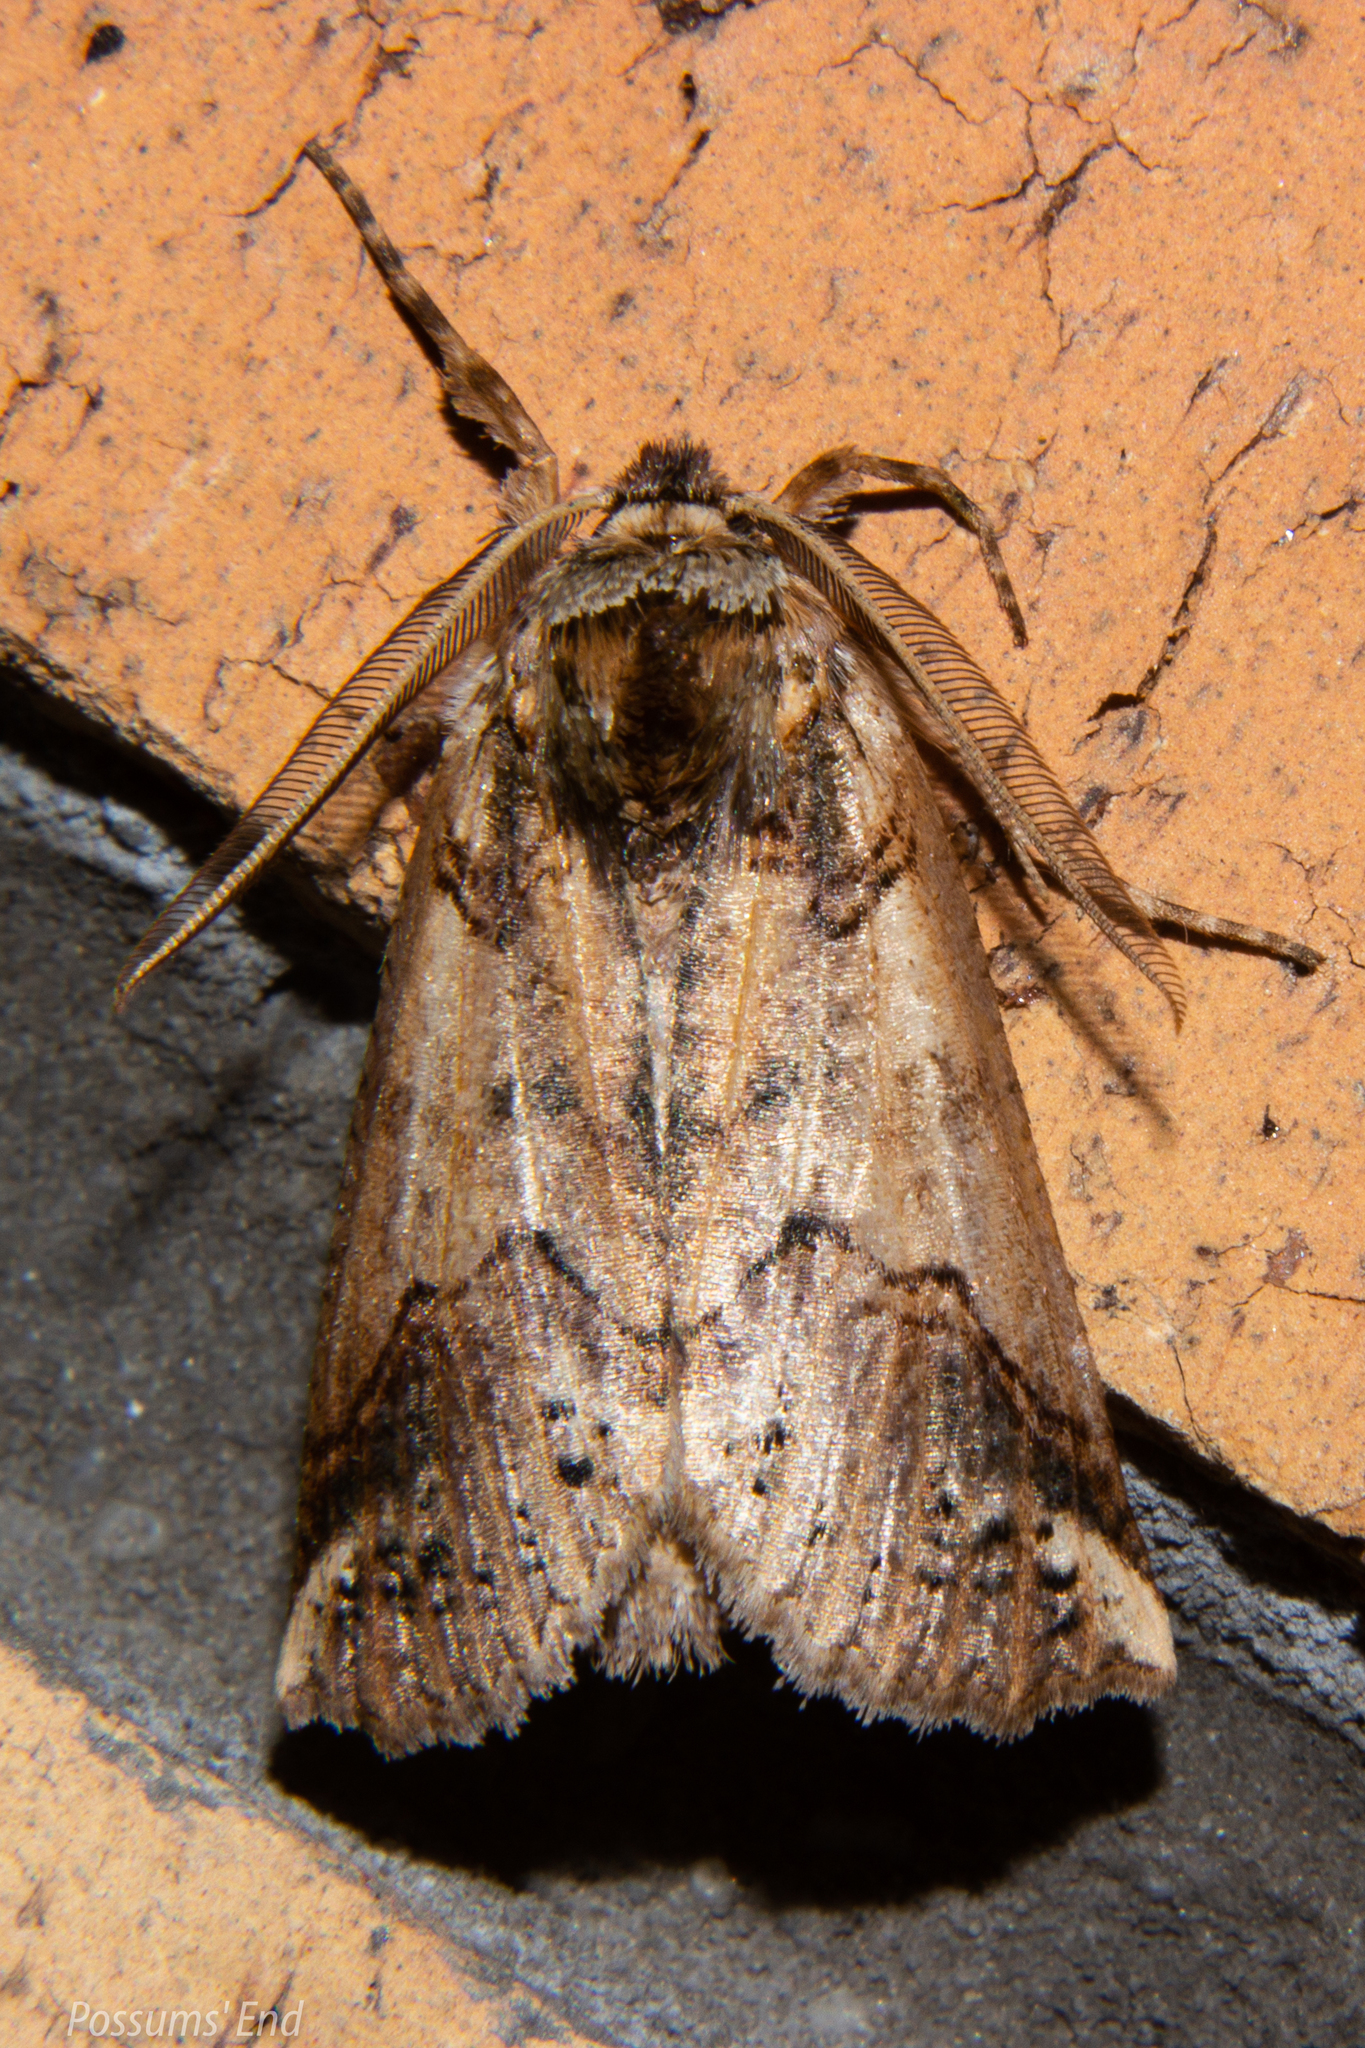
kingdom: Animalia
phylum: Arthropoda
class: Insecta
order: Lepidoptera
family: Geometridae
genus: Declana
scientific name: Declana
